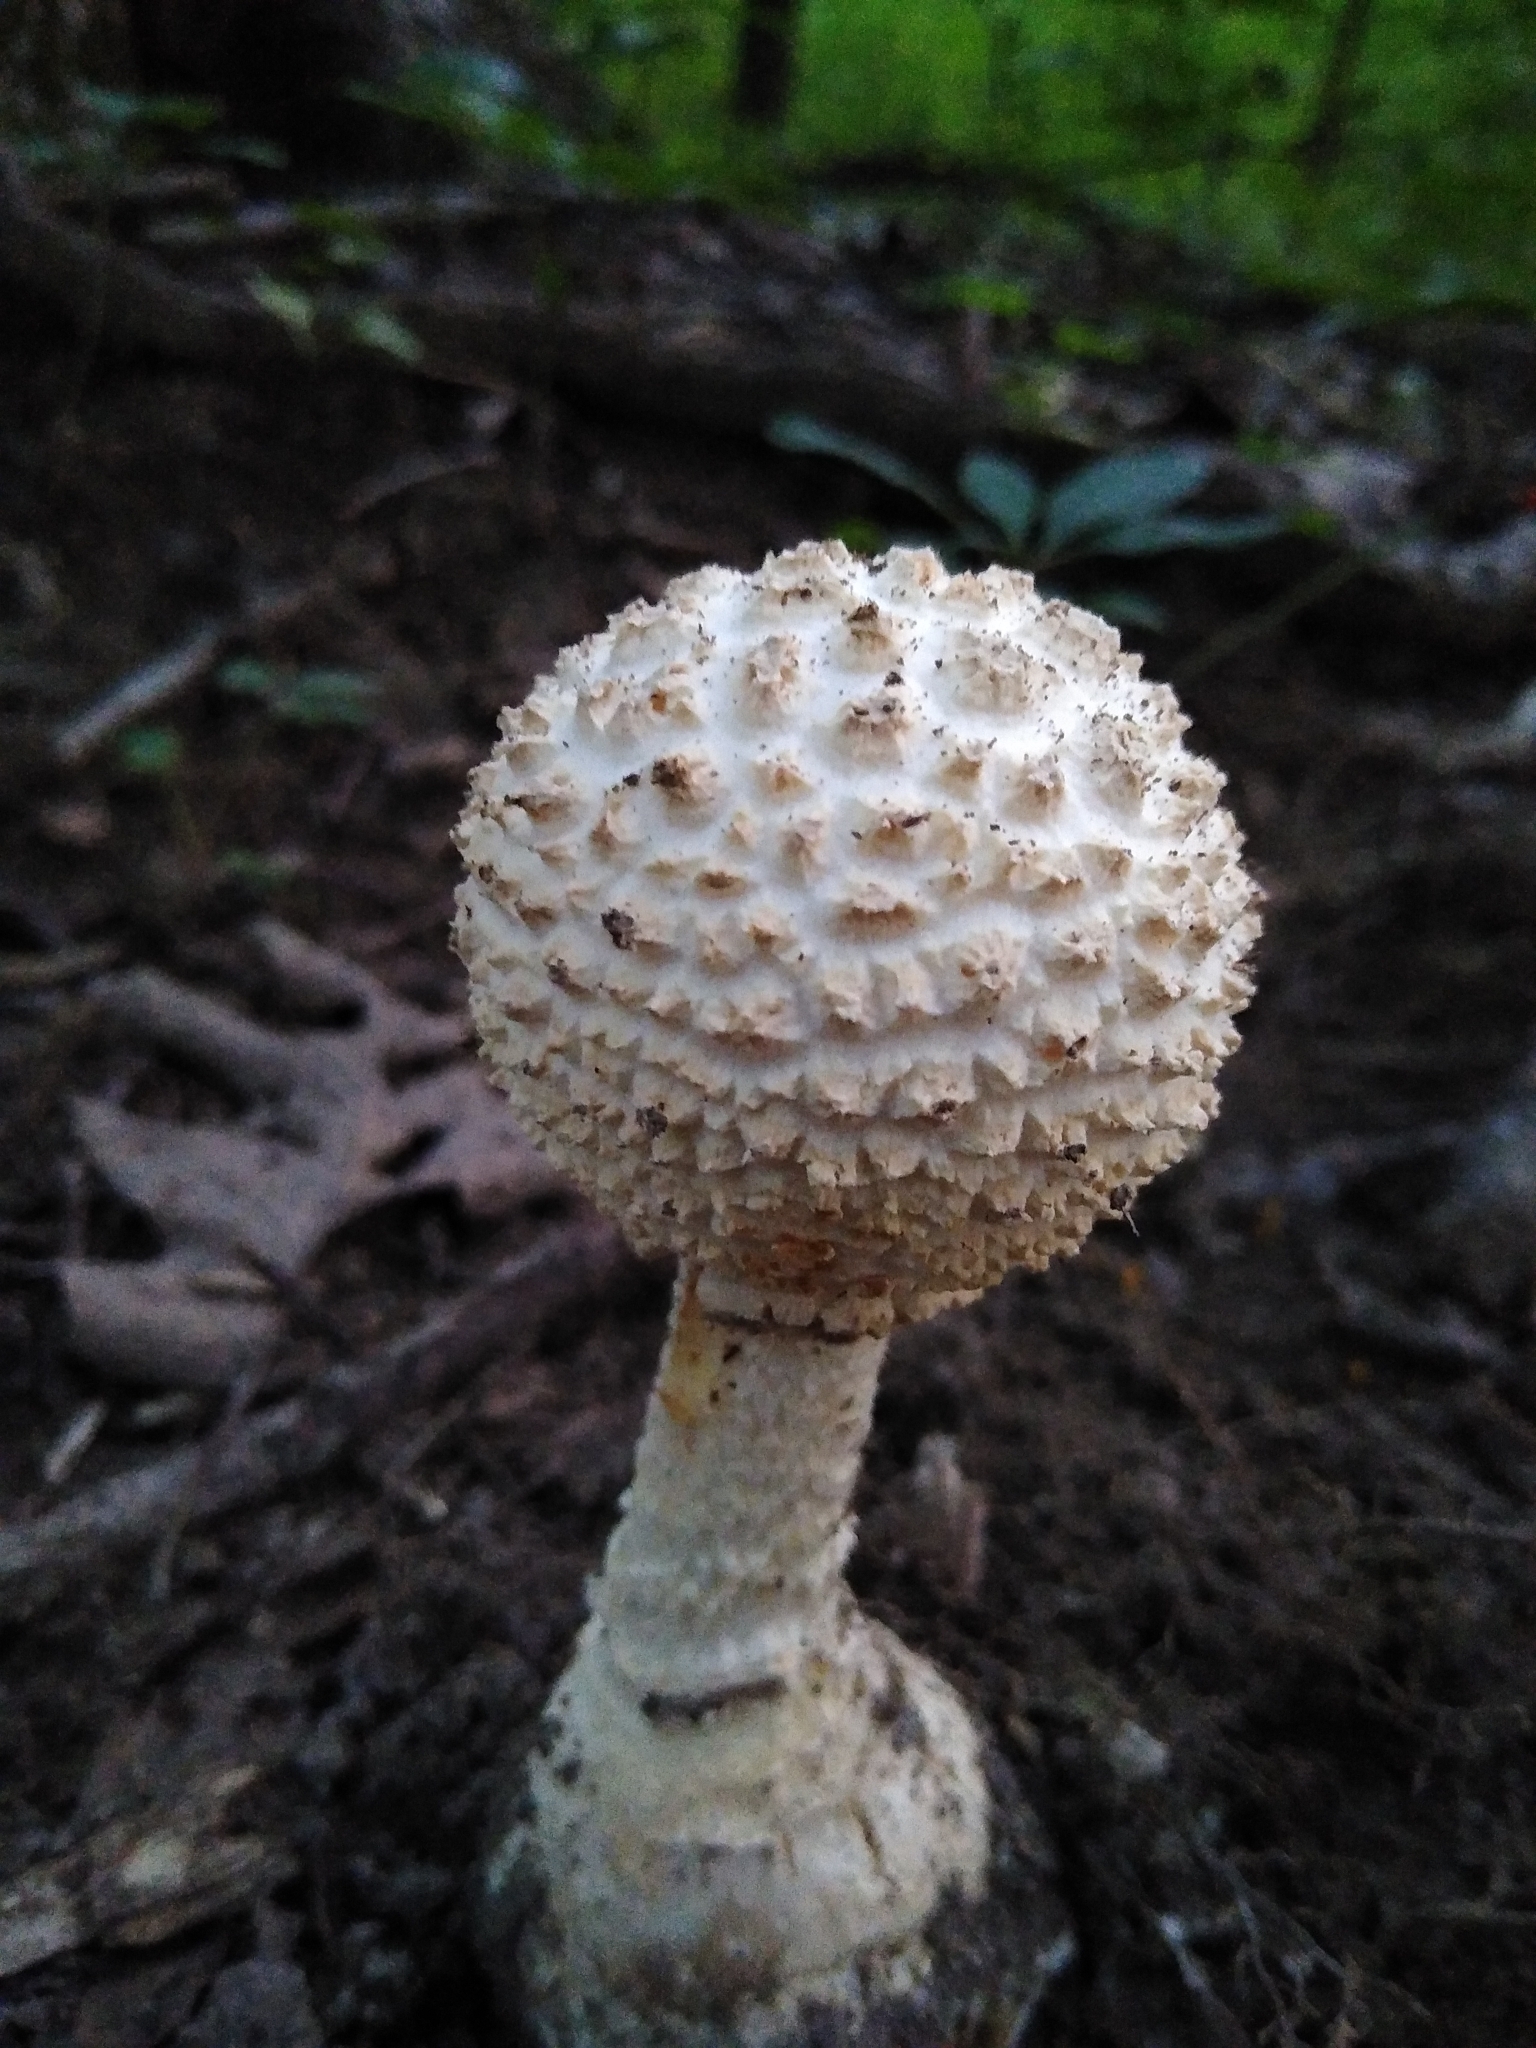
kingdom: Fungi
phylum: Basidiomycota
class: Agaricomycetes
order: Agaricales
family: Amanitaceae
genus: Amanita
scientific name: Amanita ravenelii
